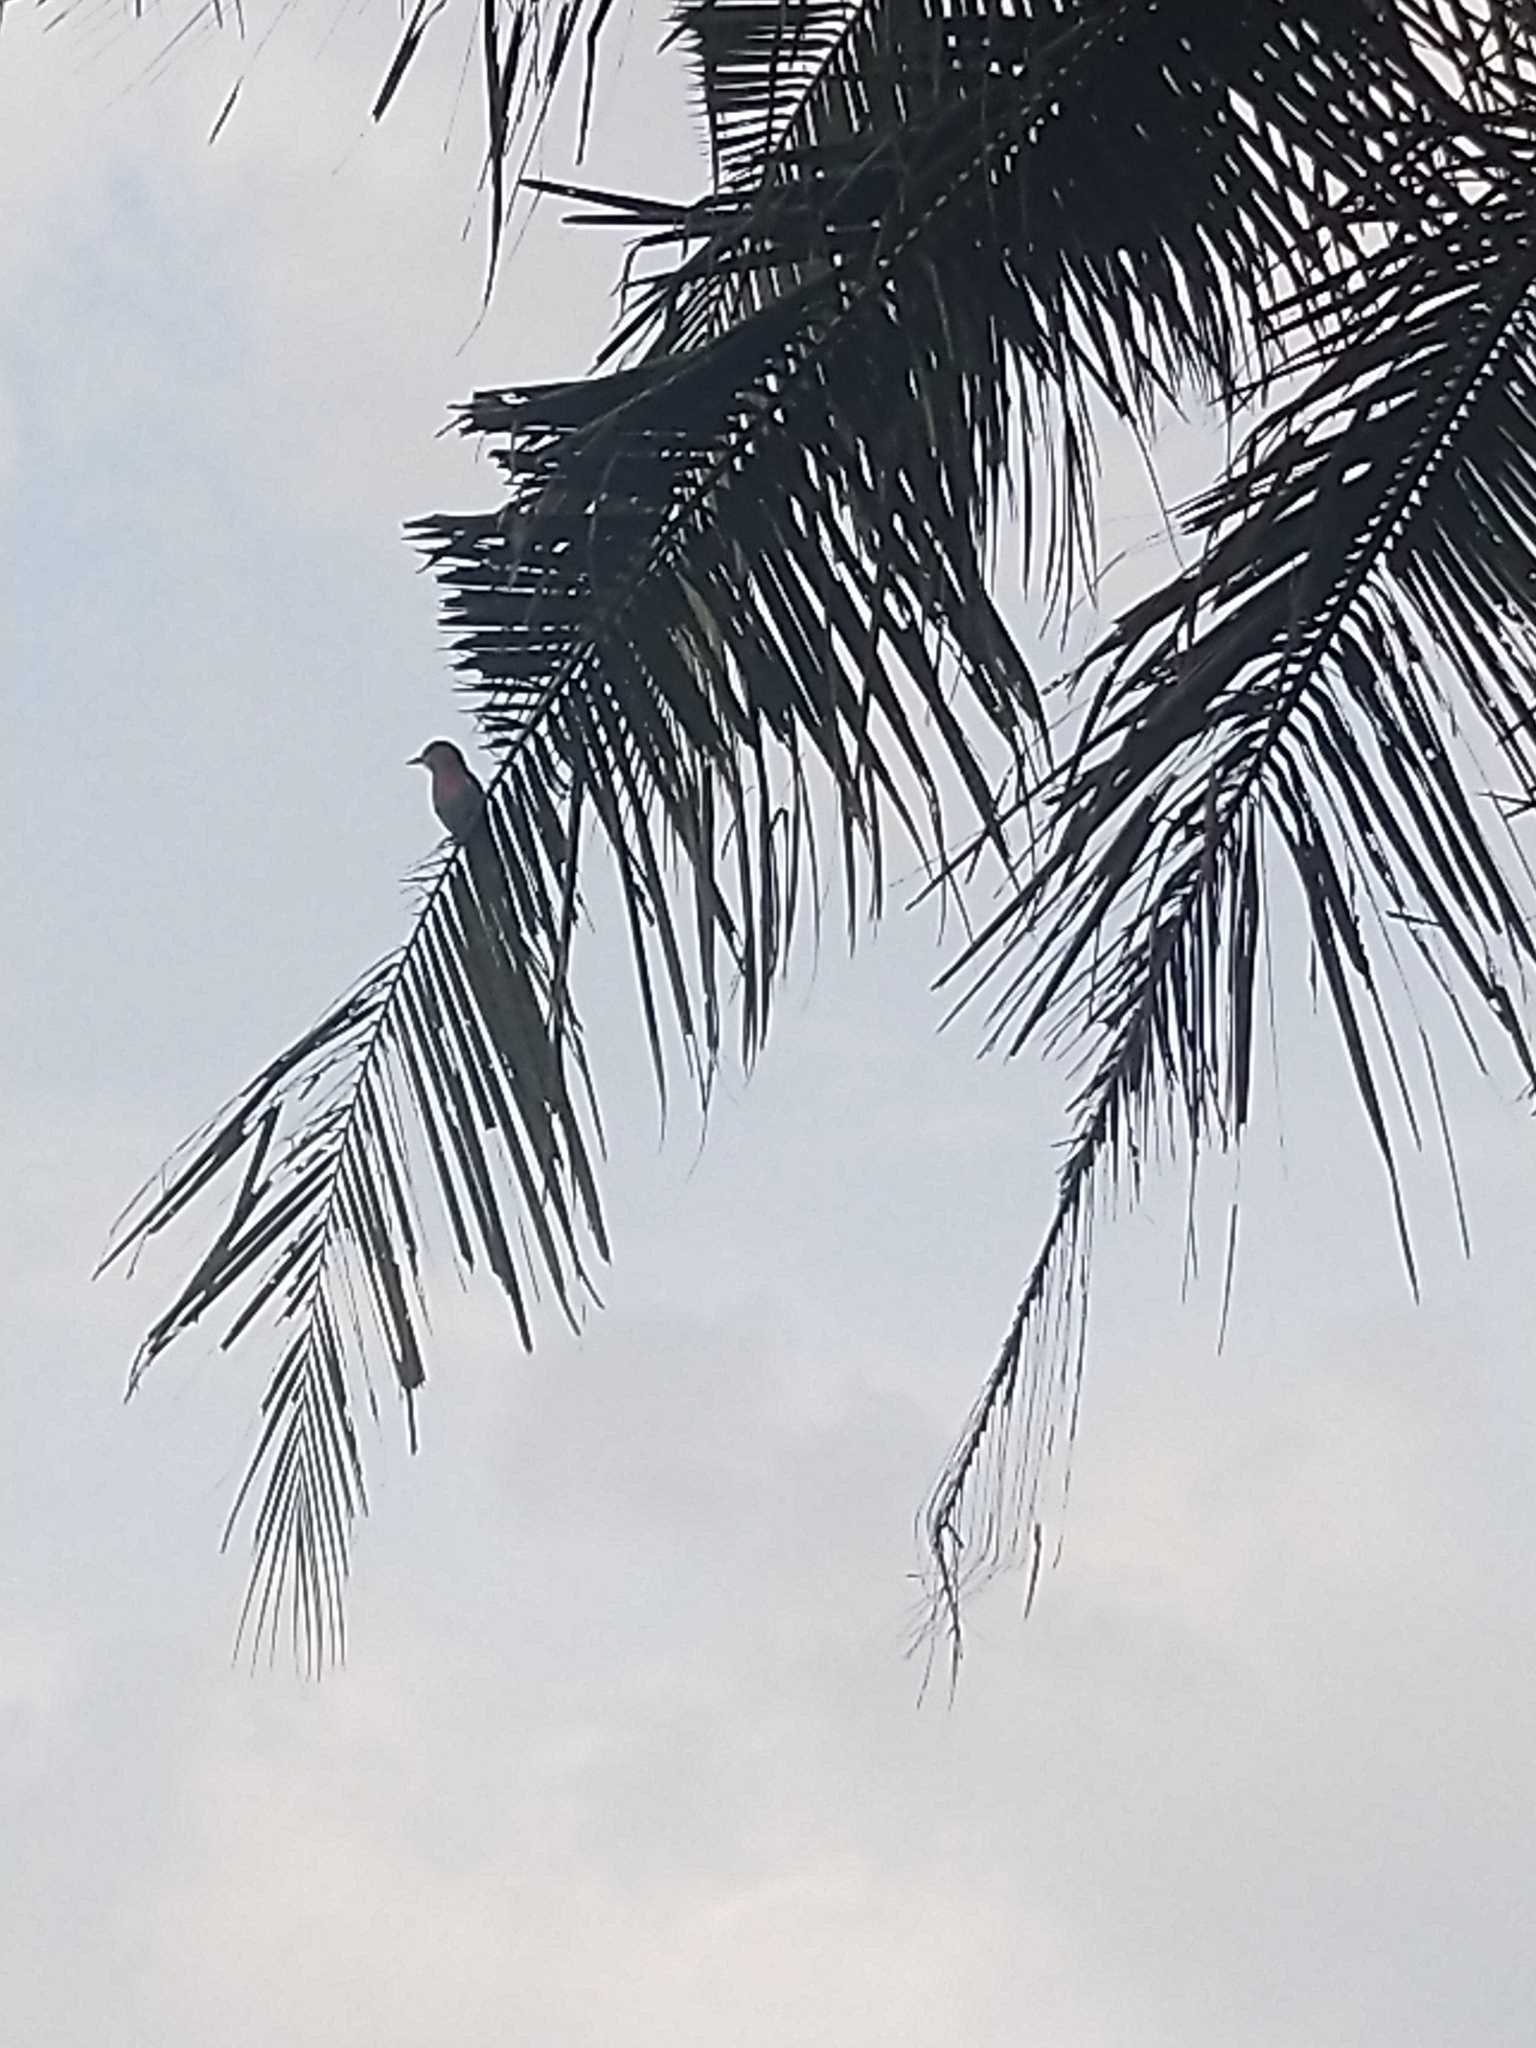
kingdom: Animalia
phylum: Chordata
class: Aves
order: Coraciiformes
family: Coraciidae
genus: Coracias
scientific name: Coracias benghalensis
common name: Indian roller
